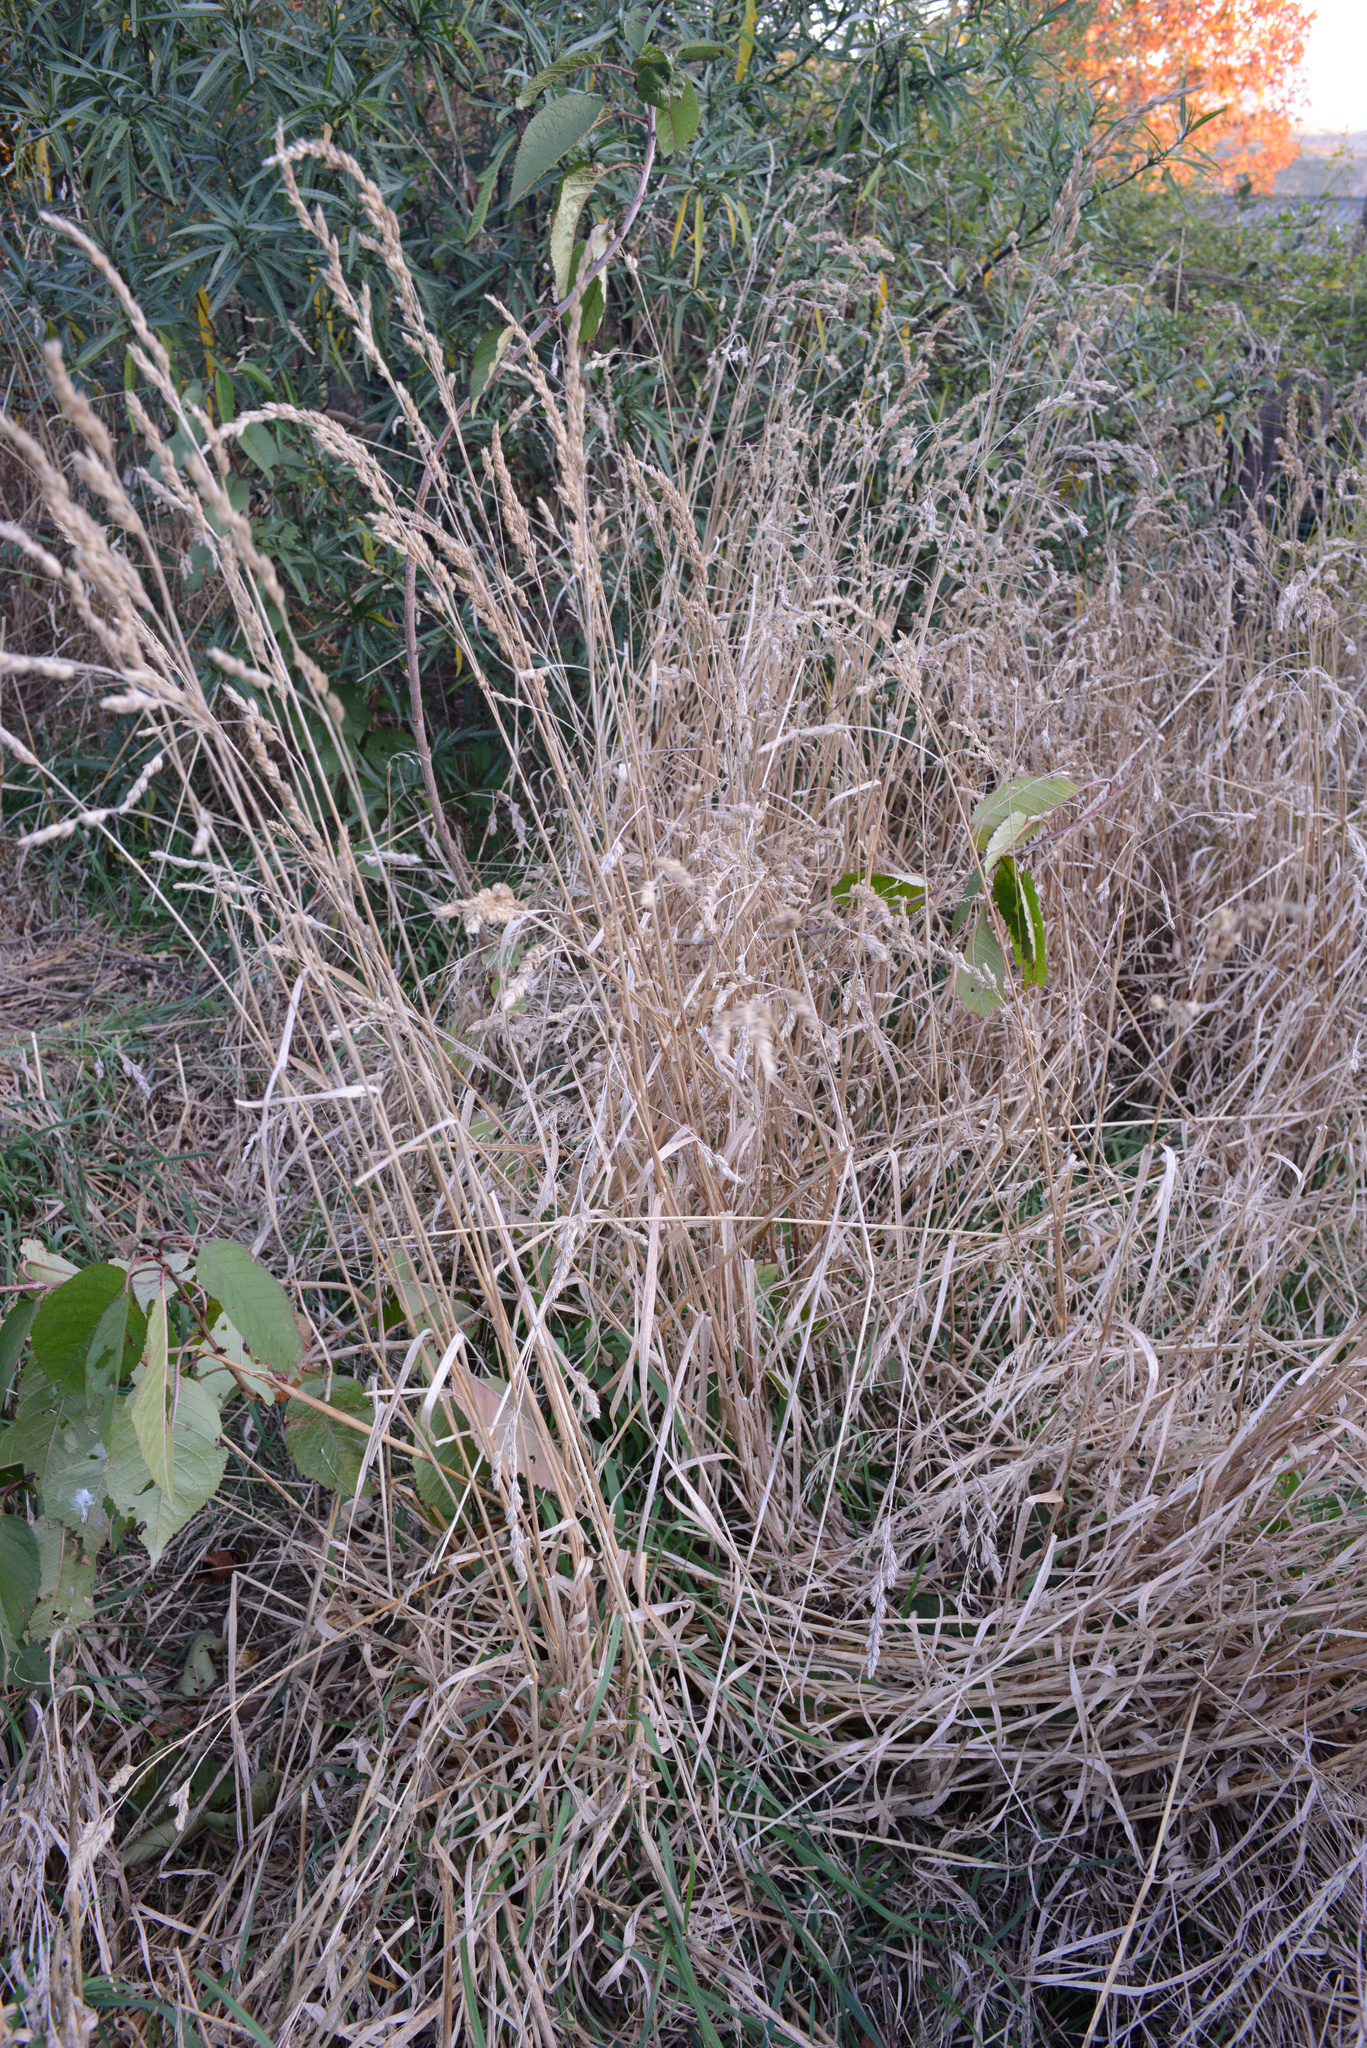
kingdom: Plantae
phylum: Tracheophyta
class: Liliopsida
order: Poales
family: Poaceae
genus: Dactylis
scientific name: Dactylis glomerata
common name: Orchardgrass
